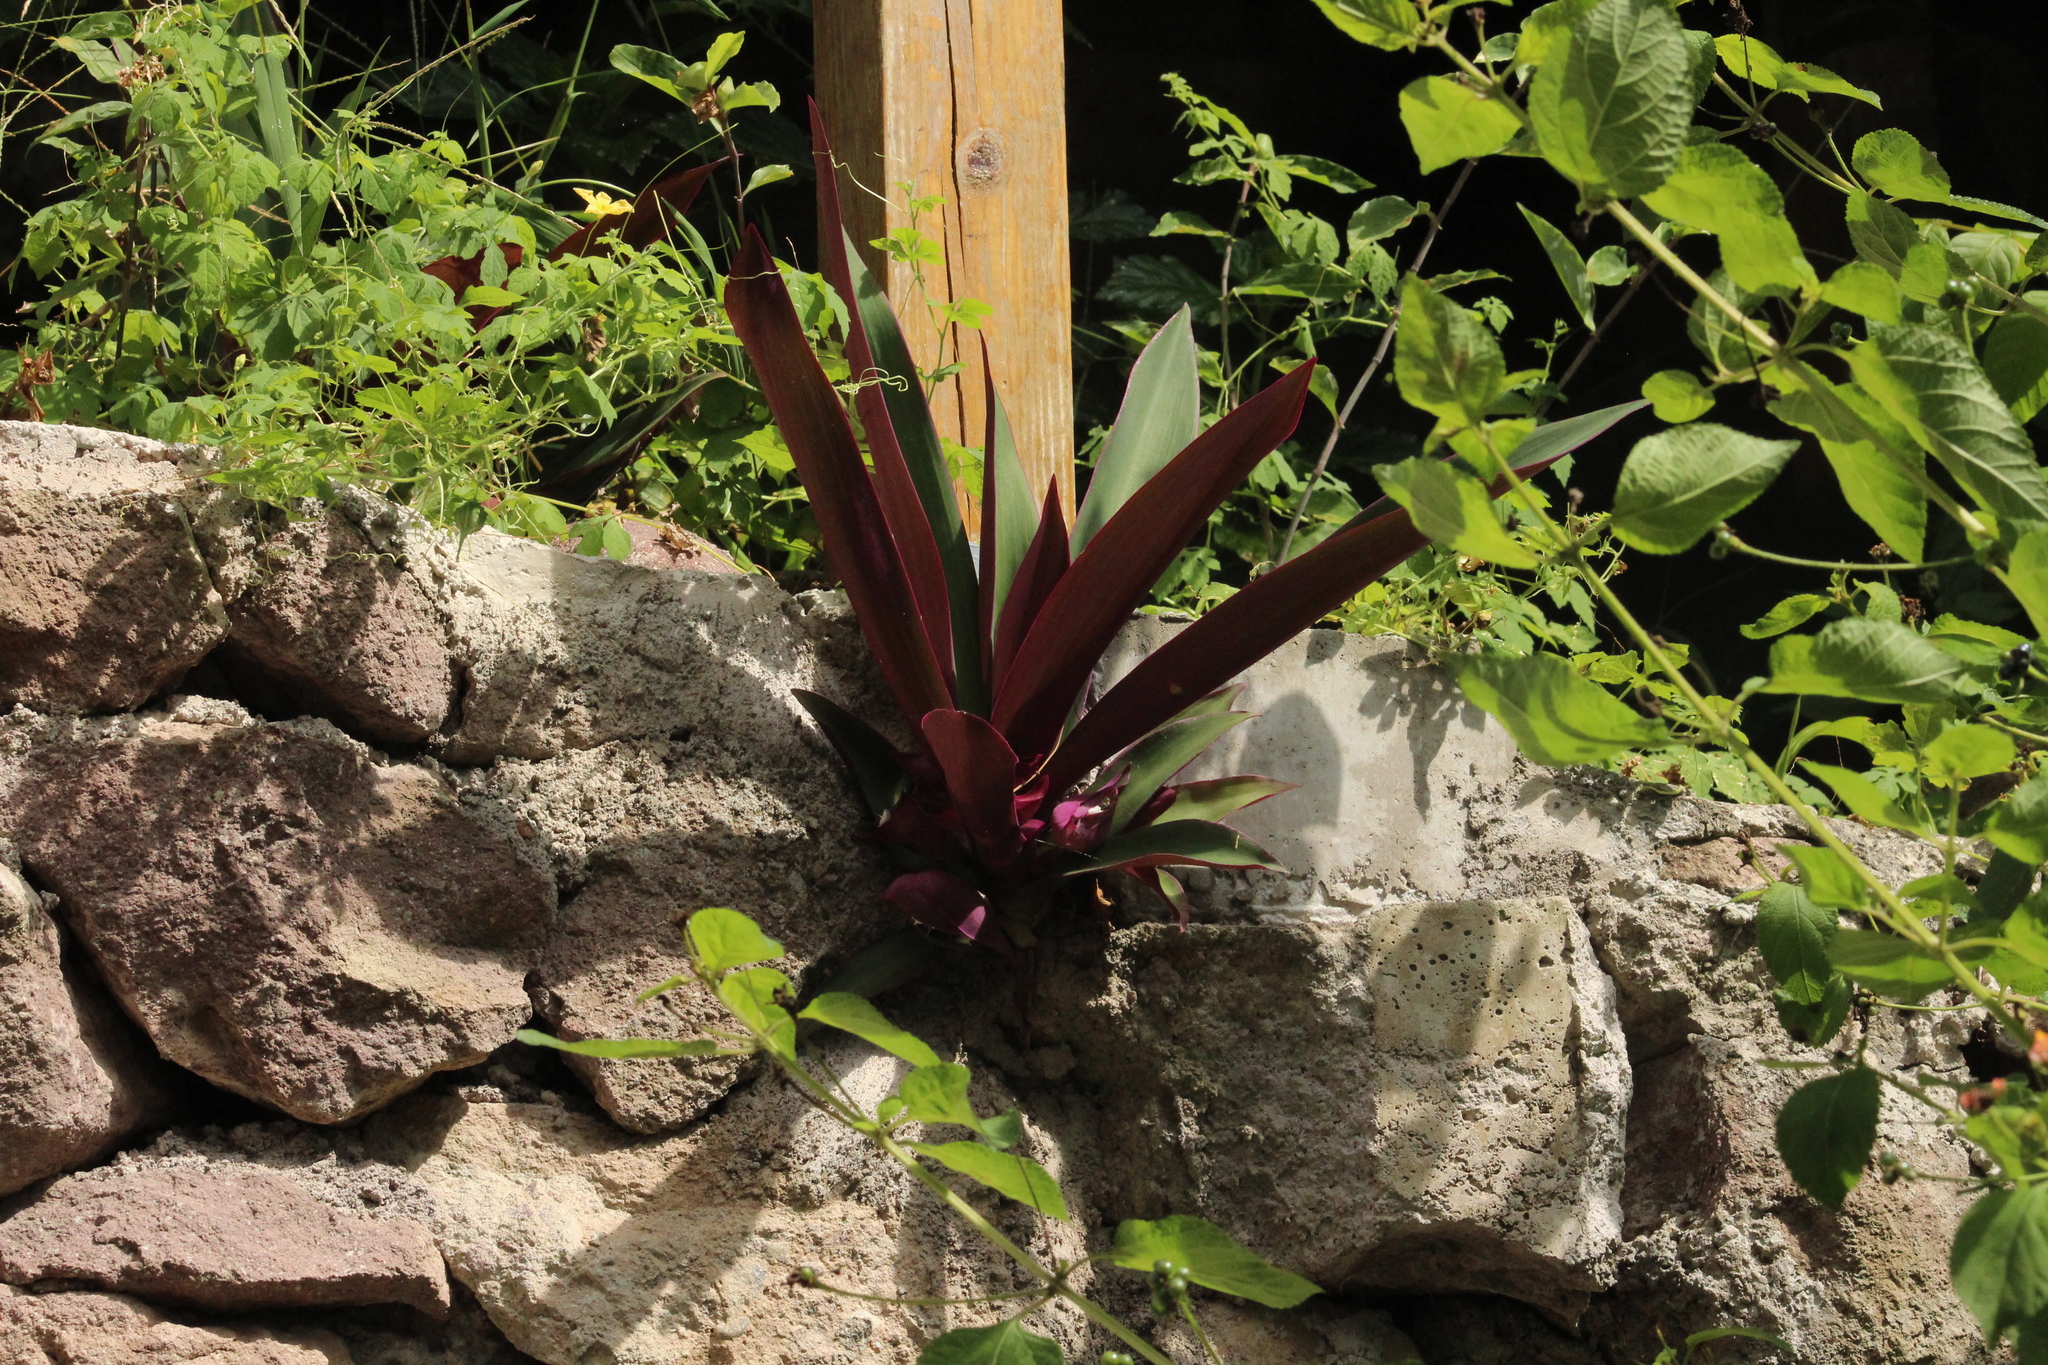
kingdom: Plantae
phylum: Tracheophyta
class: Liliopsida
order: Commelinales
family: Commelinaceae
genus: Tradescantia
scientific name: Tradescantia spathacea
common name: Boatlily
